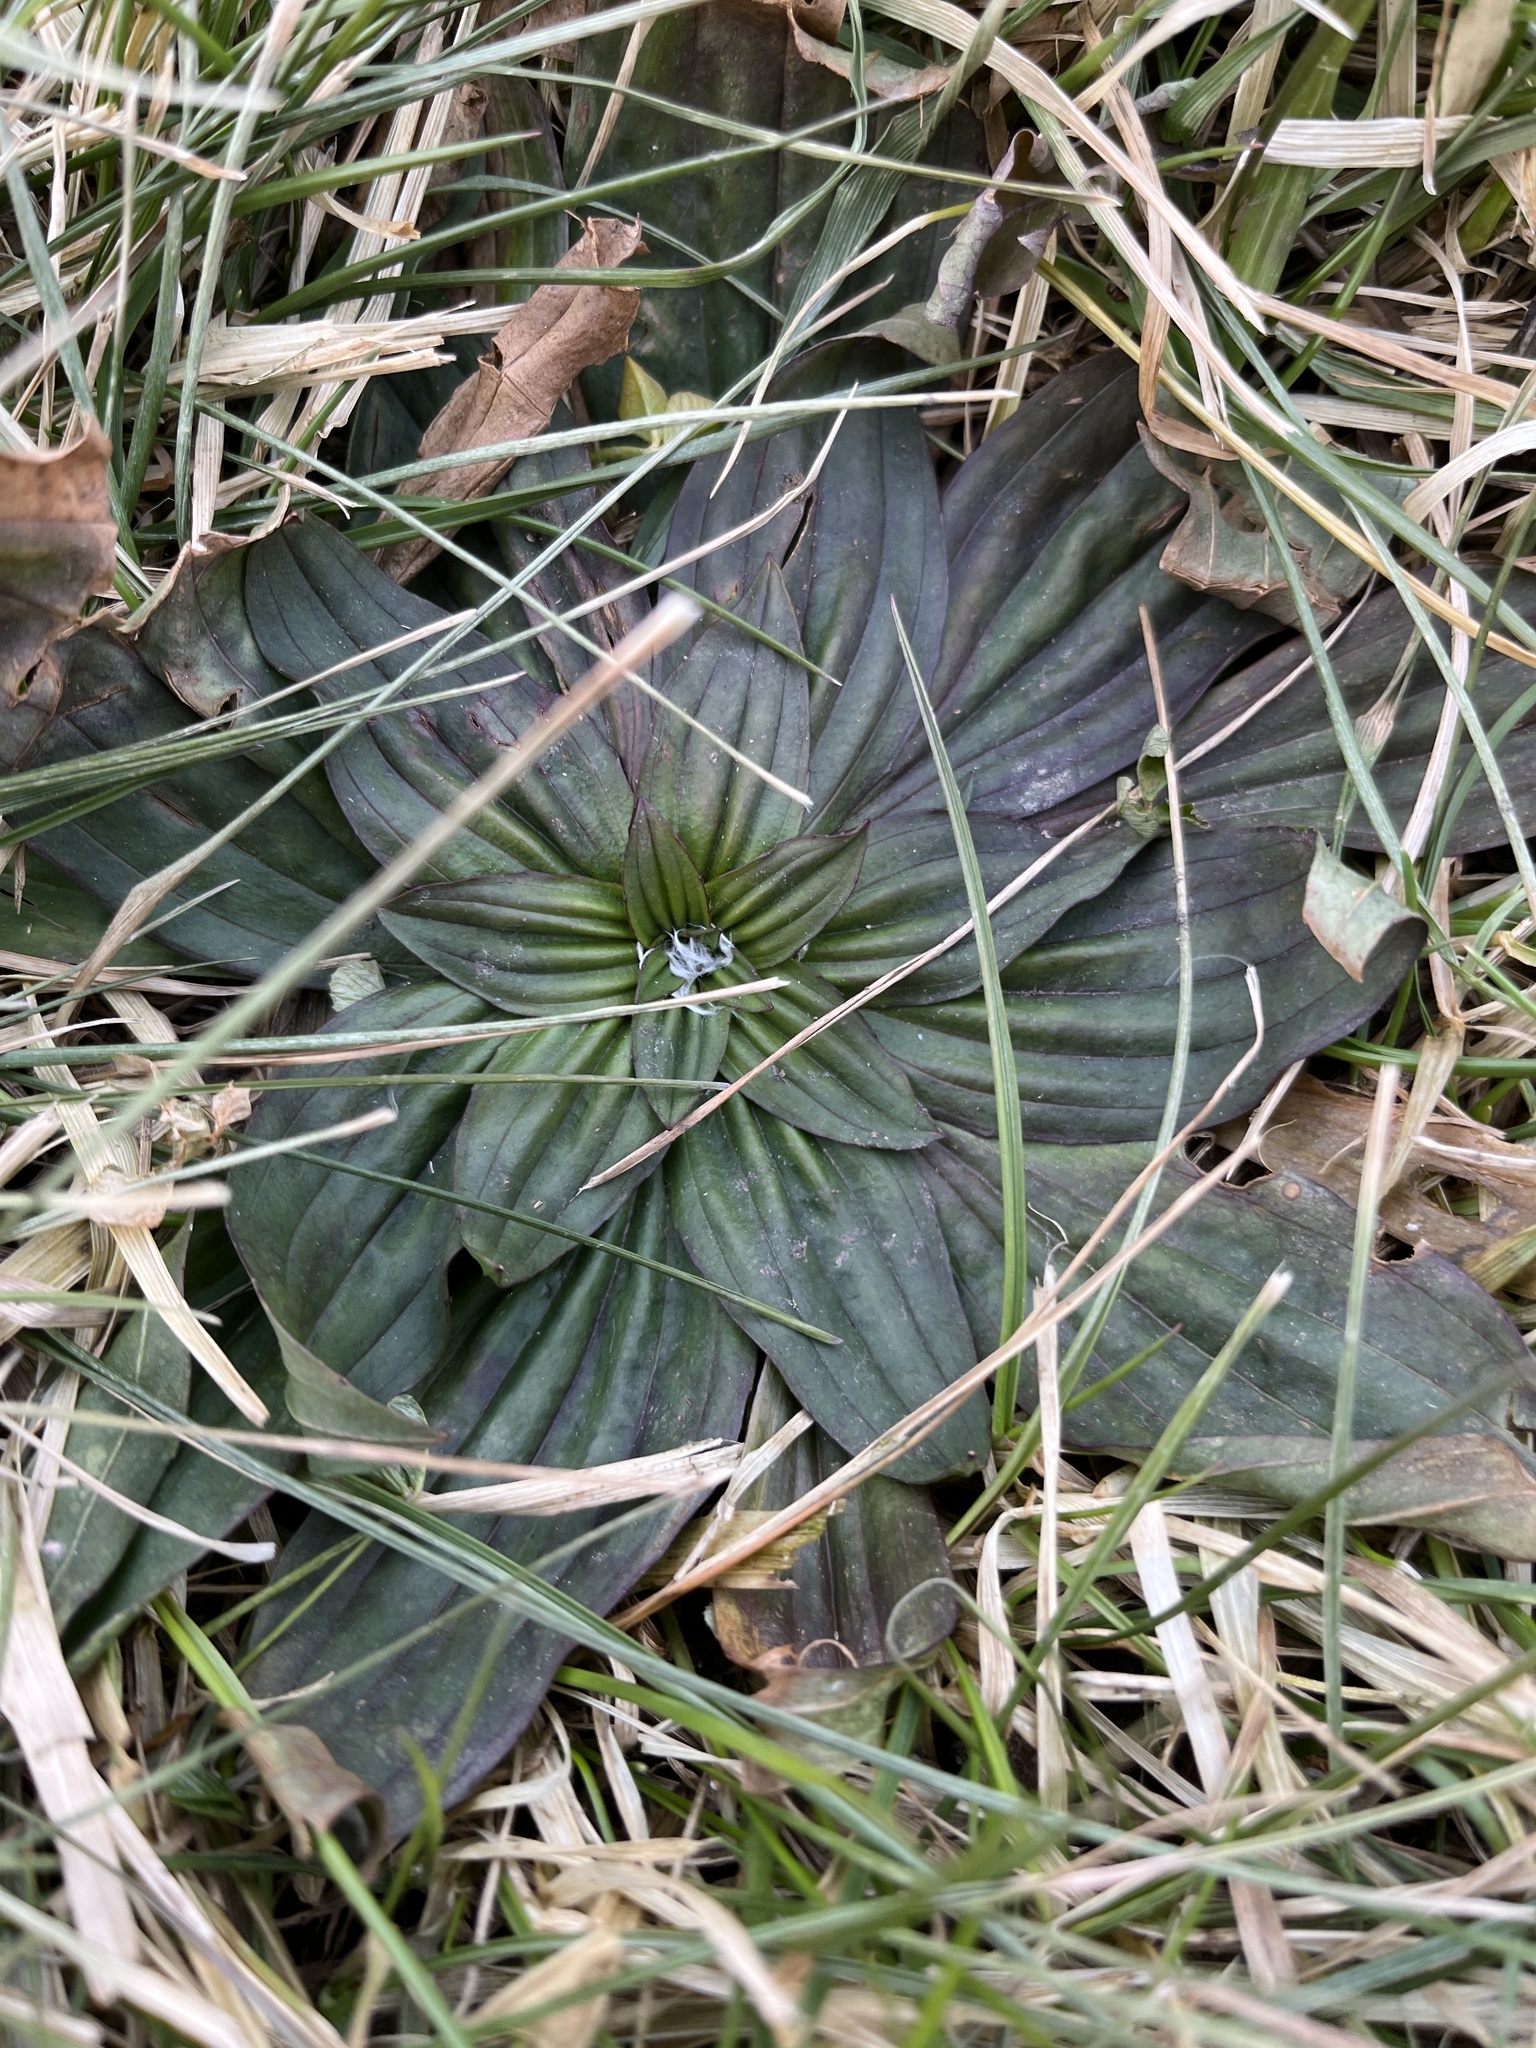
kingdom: Plantae
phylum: Tracheophyta
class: Magnoliopsida
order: Lamiales
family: Plantaginaceae
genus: Plantago
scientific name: Plantago lanceolata
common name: Ribwort plantain
